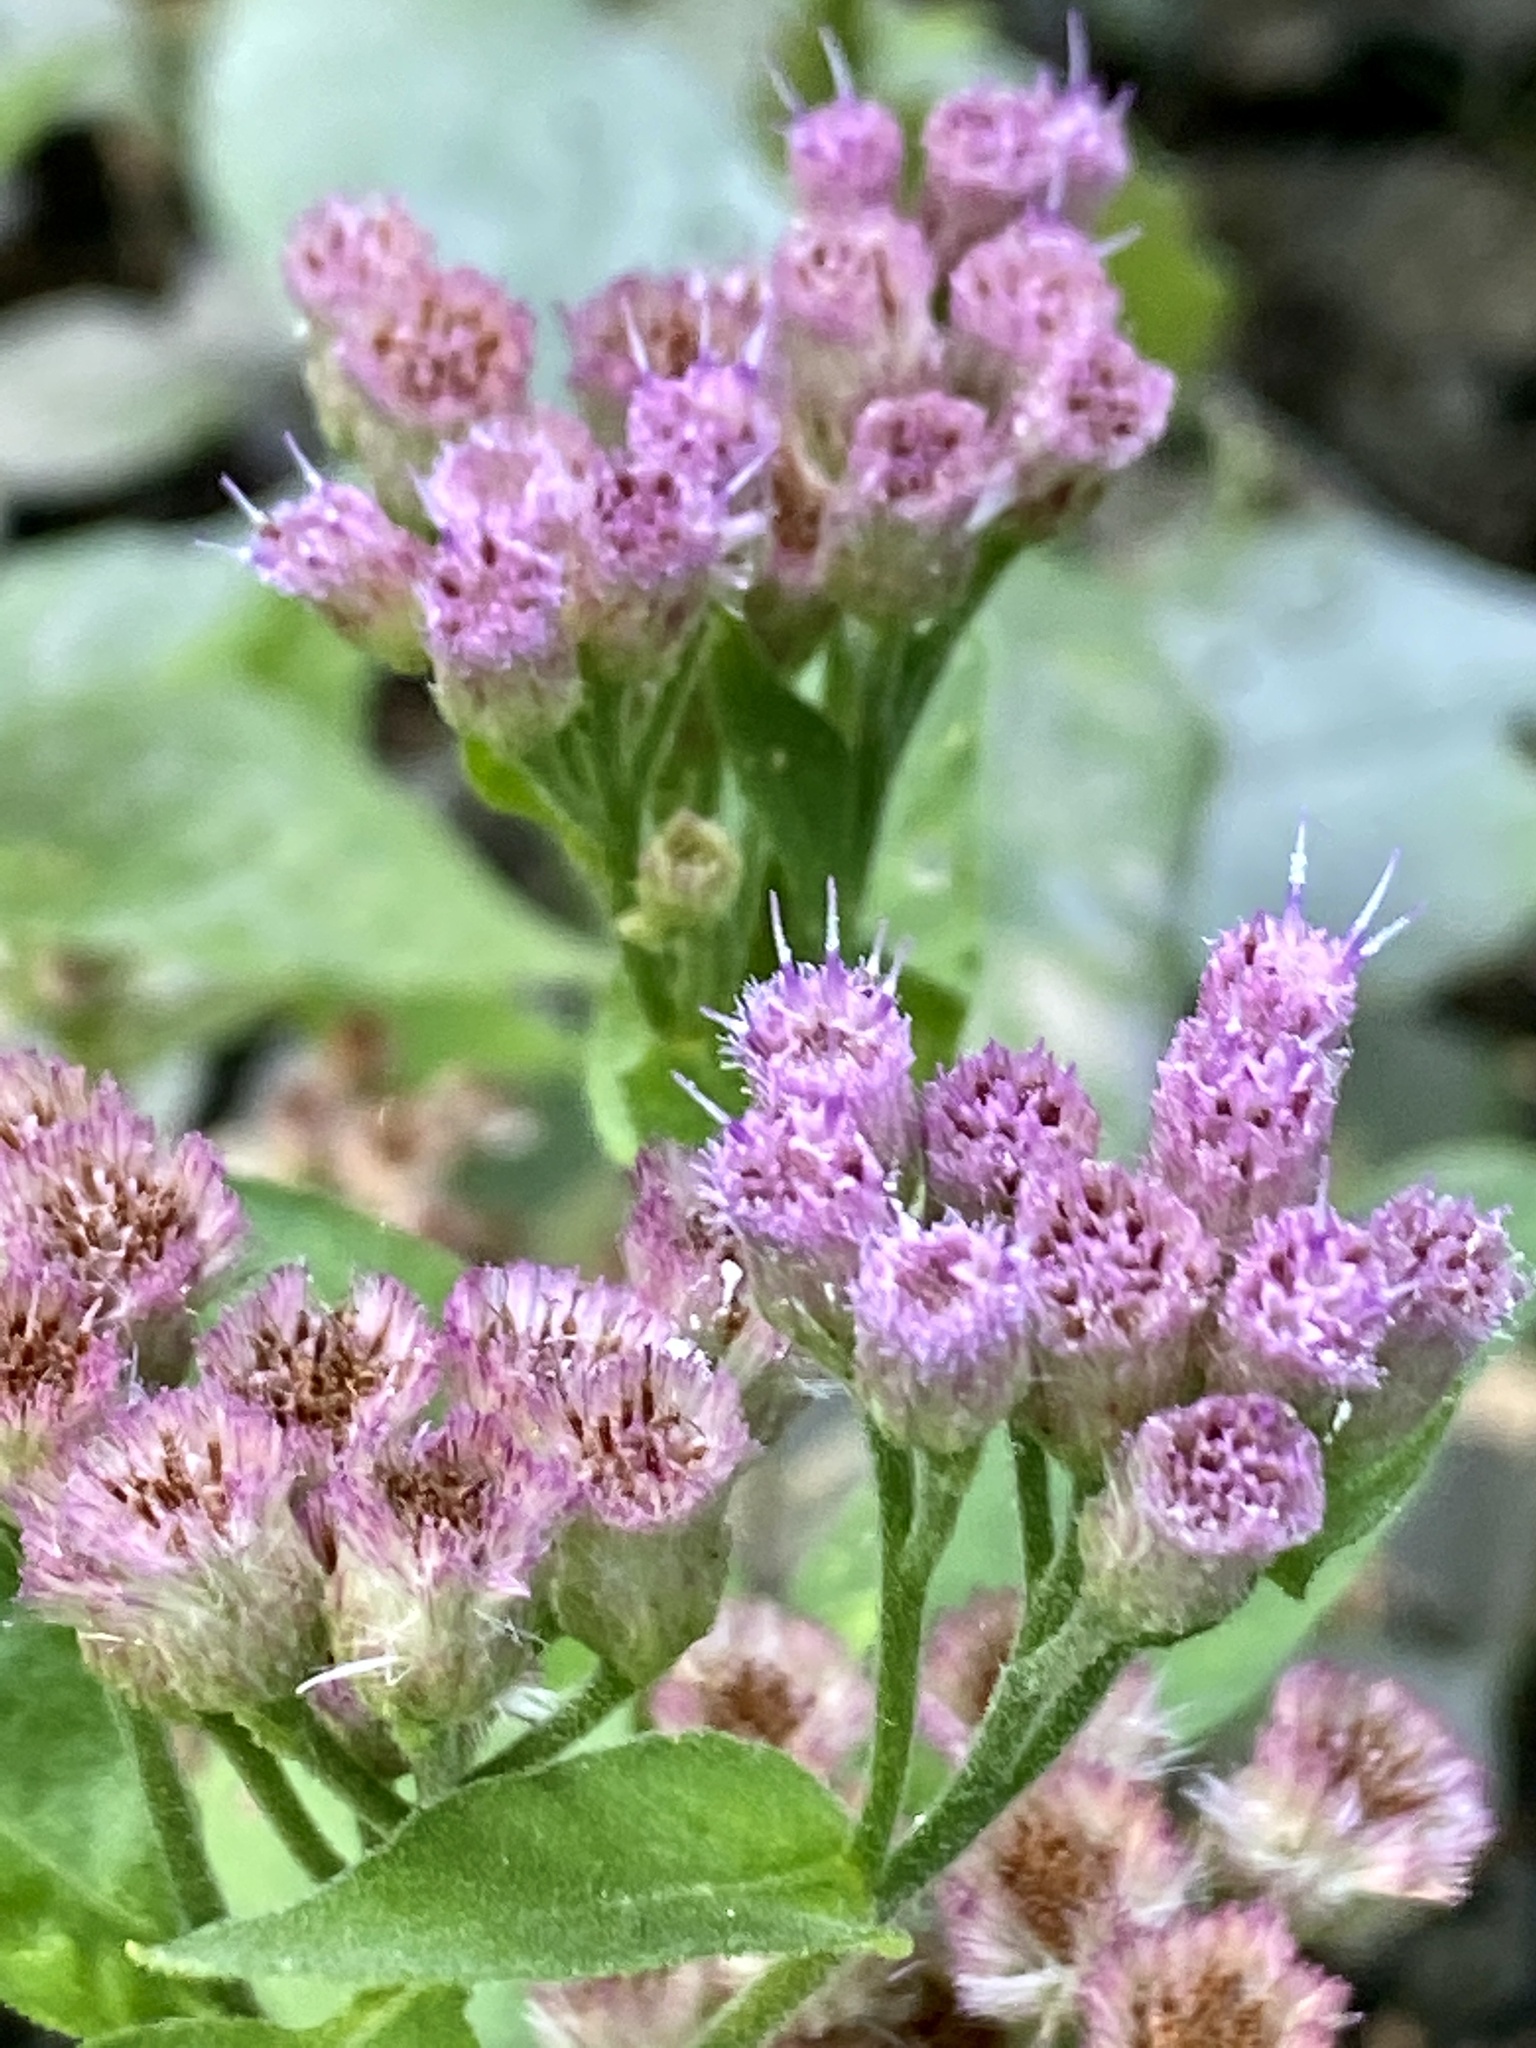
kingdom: Plantae
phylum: Tracheophyta
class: Magnoliopsida
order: Asterales
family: Asteraceae
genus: Pluchea
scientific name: Pluchea odorata
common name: Saltmarsh fleabane
